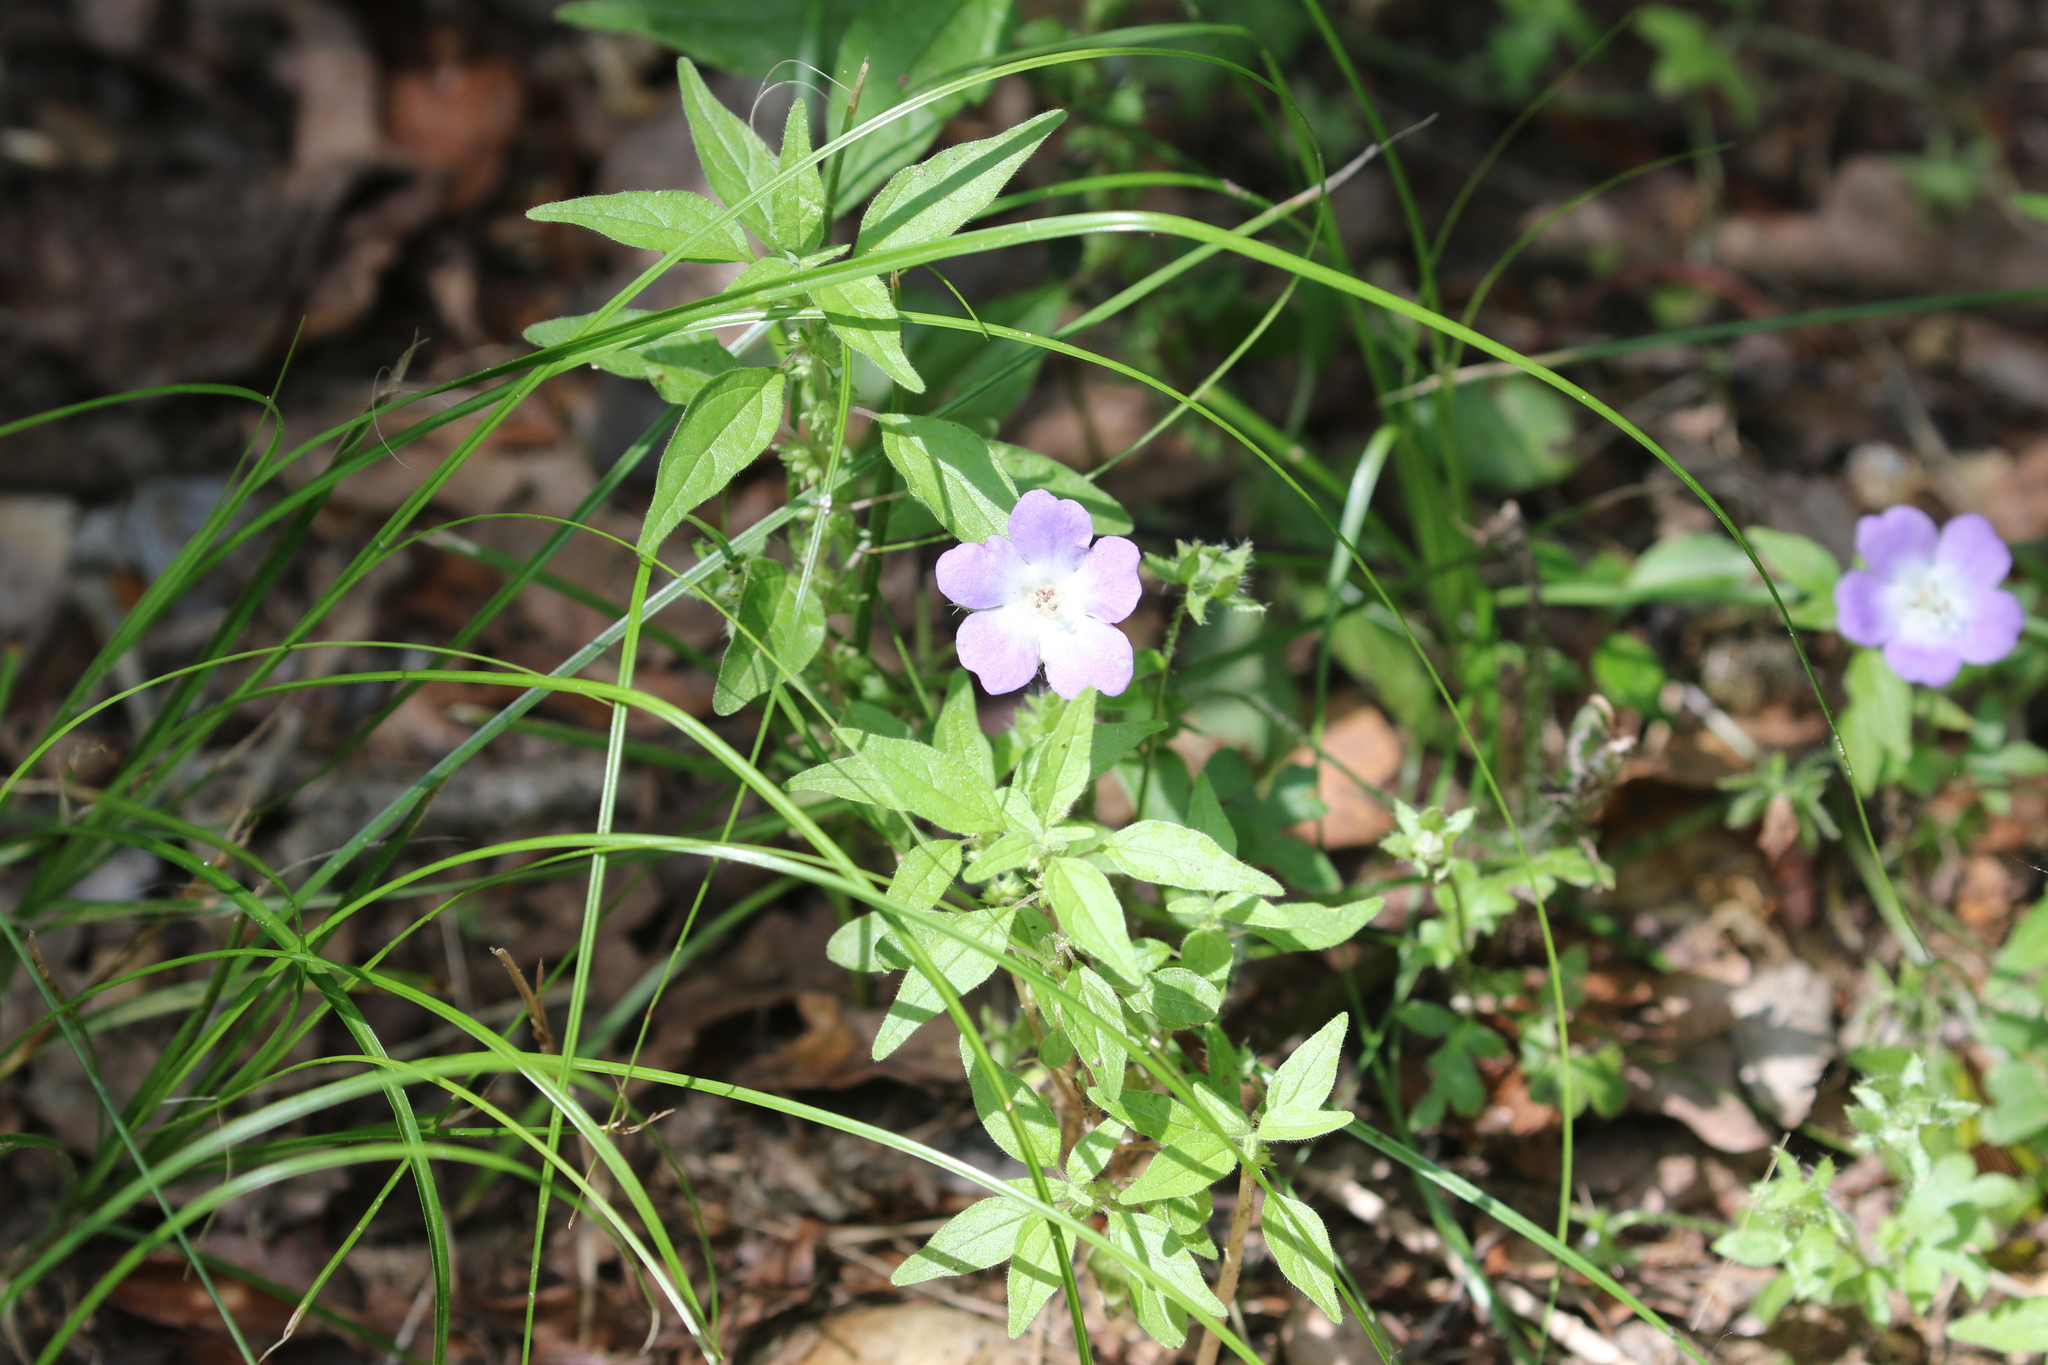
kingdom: Plantae
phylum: Tracheophyta
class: Magnoliopsida
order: Boraginales
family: Hydrophyllaceae
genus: Nemophila
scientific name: Nemophila phacelioides
